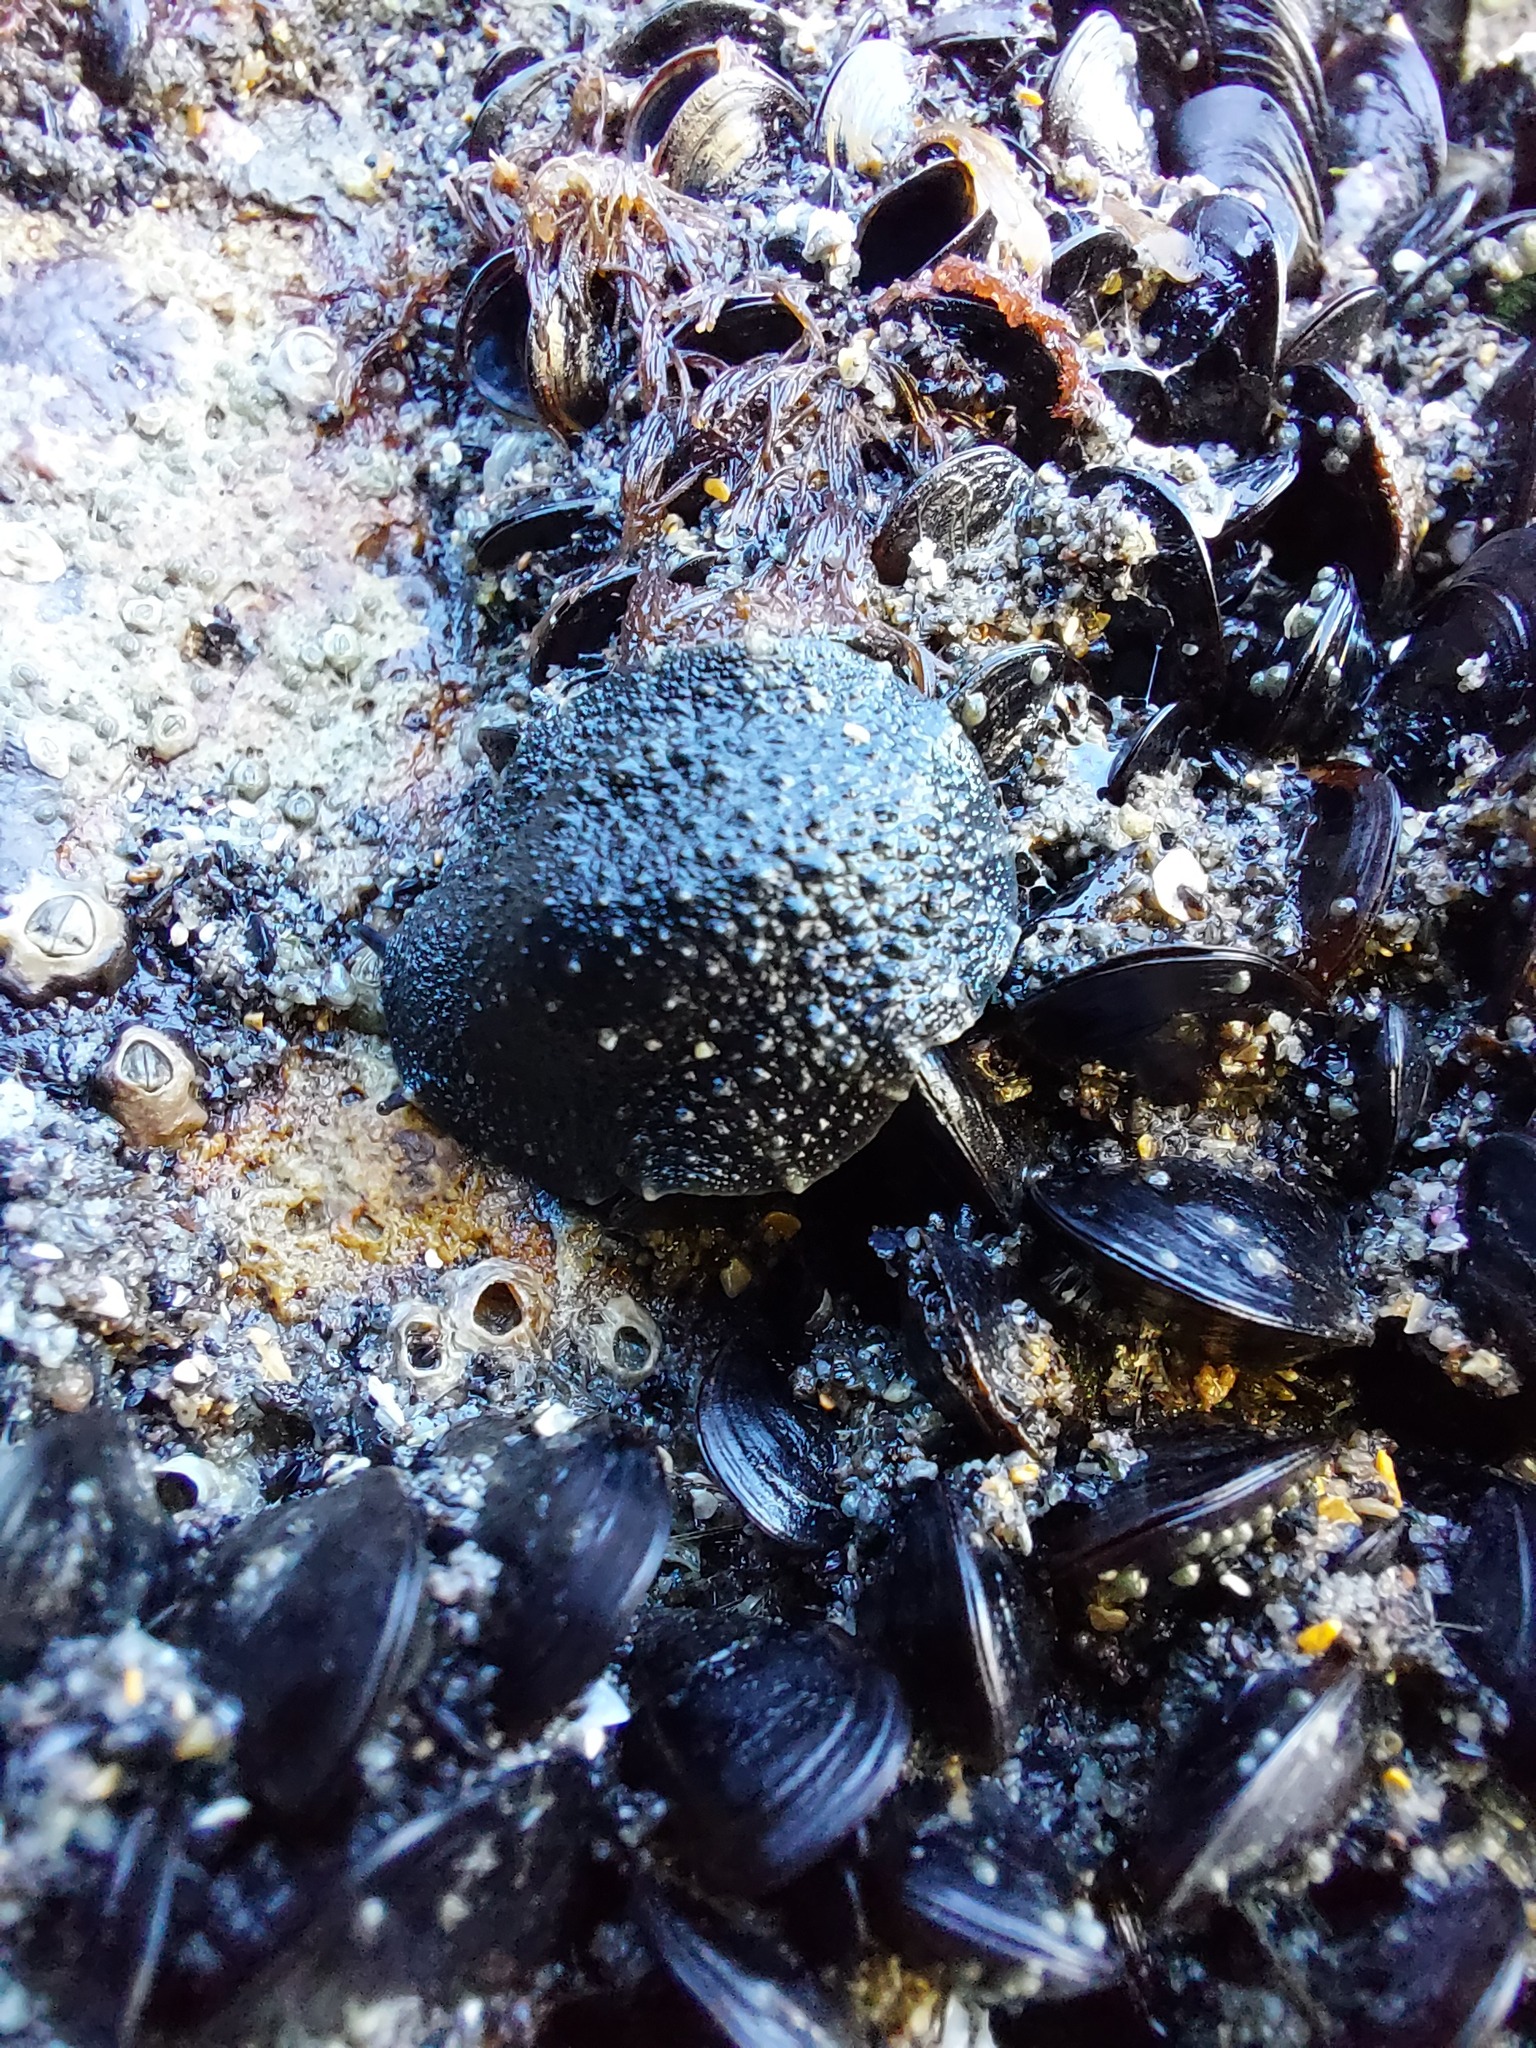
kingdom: Animalia
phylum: Mollusca
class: Gastropoda
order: Systellommatophora
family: Onchidiidae
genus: Onchidella
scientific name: Onchidella nigricans
